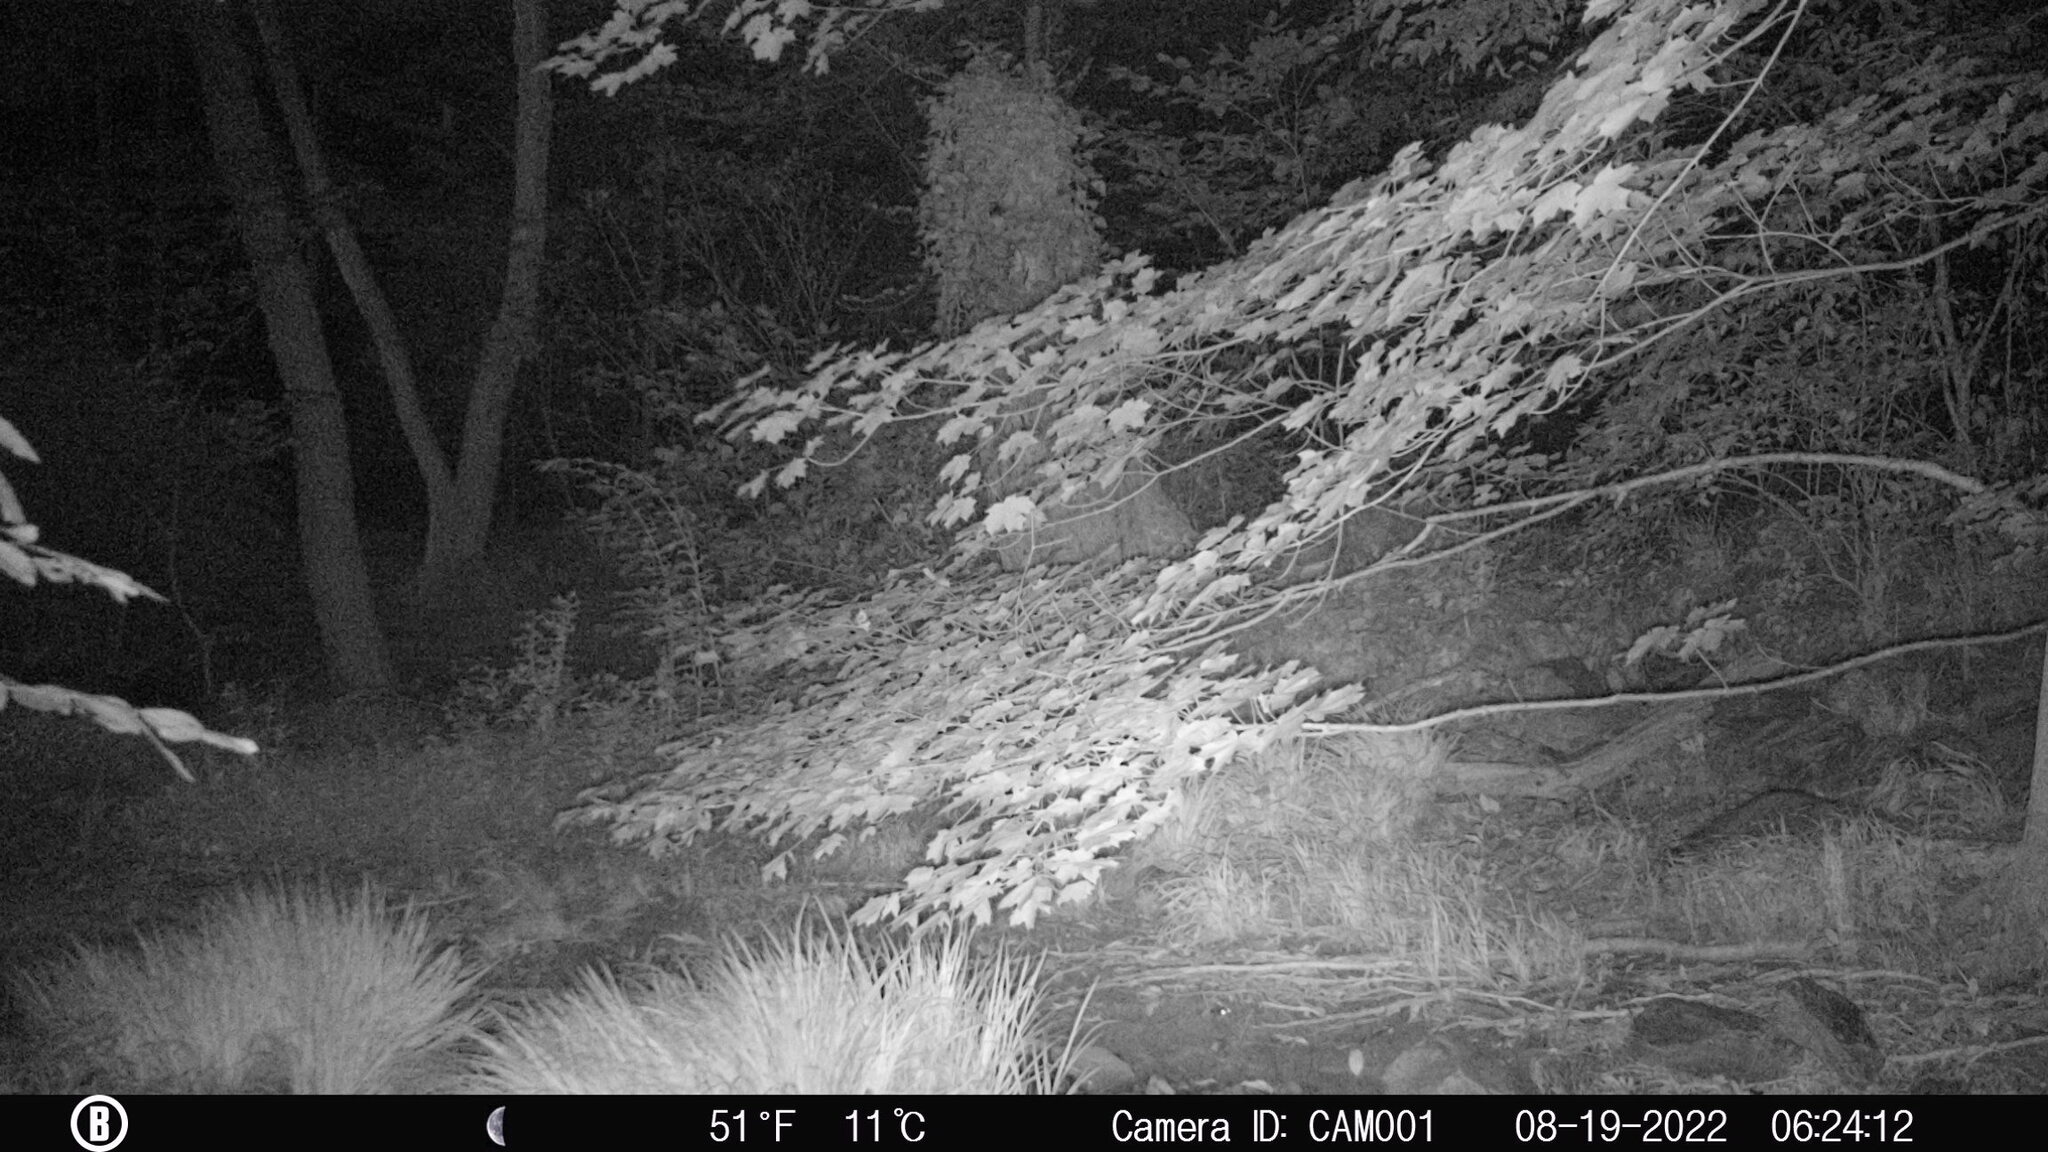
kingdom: Animalia
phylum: Chordata
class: Mammalia
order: Carnivora
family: Procyonidae
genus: Procyon
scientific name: Procyon lotor
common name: Raccoon
